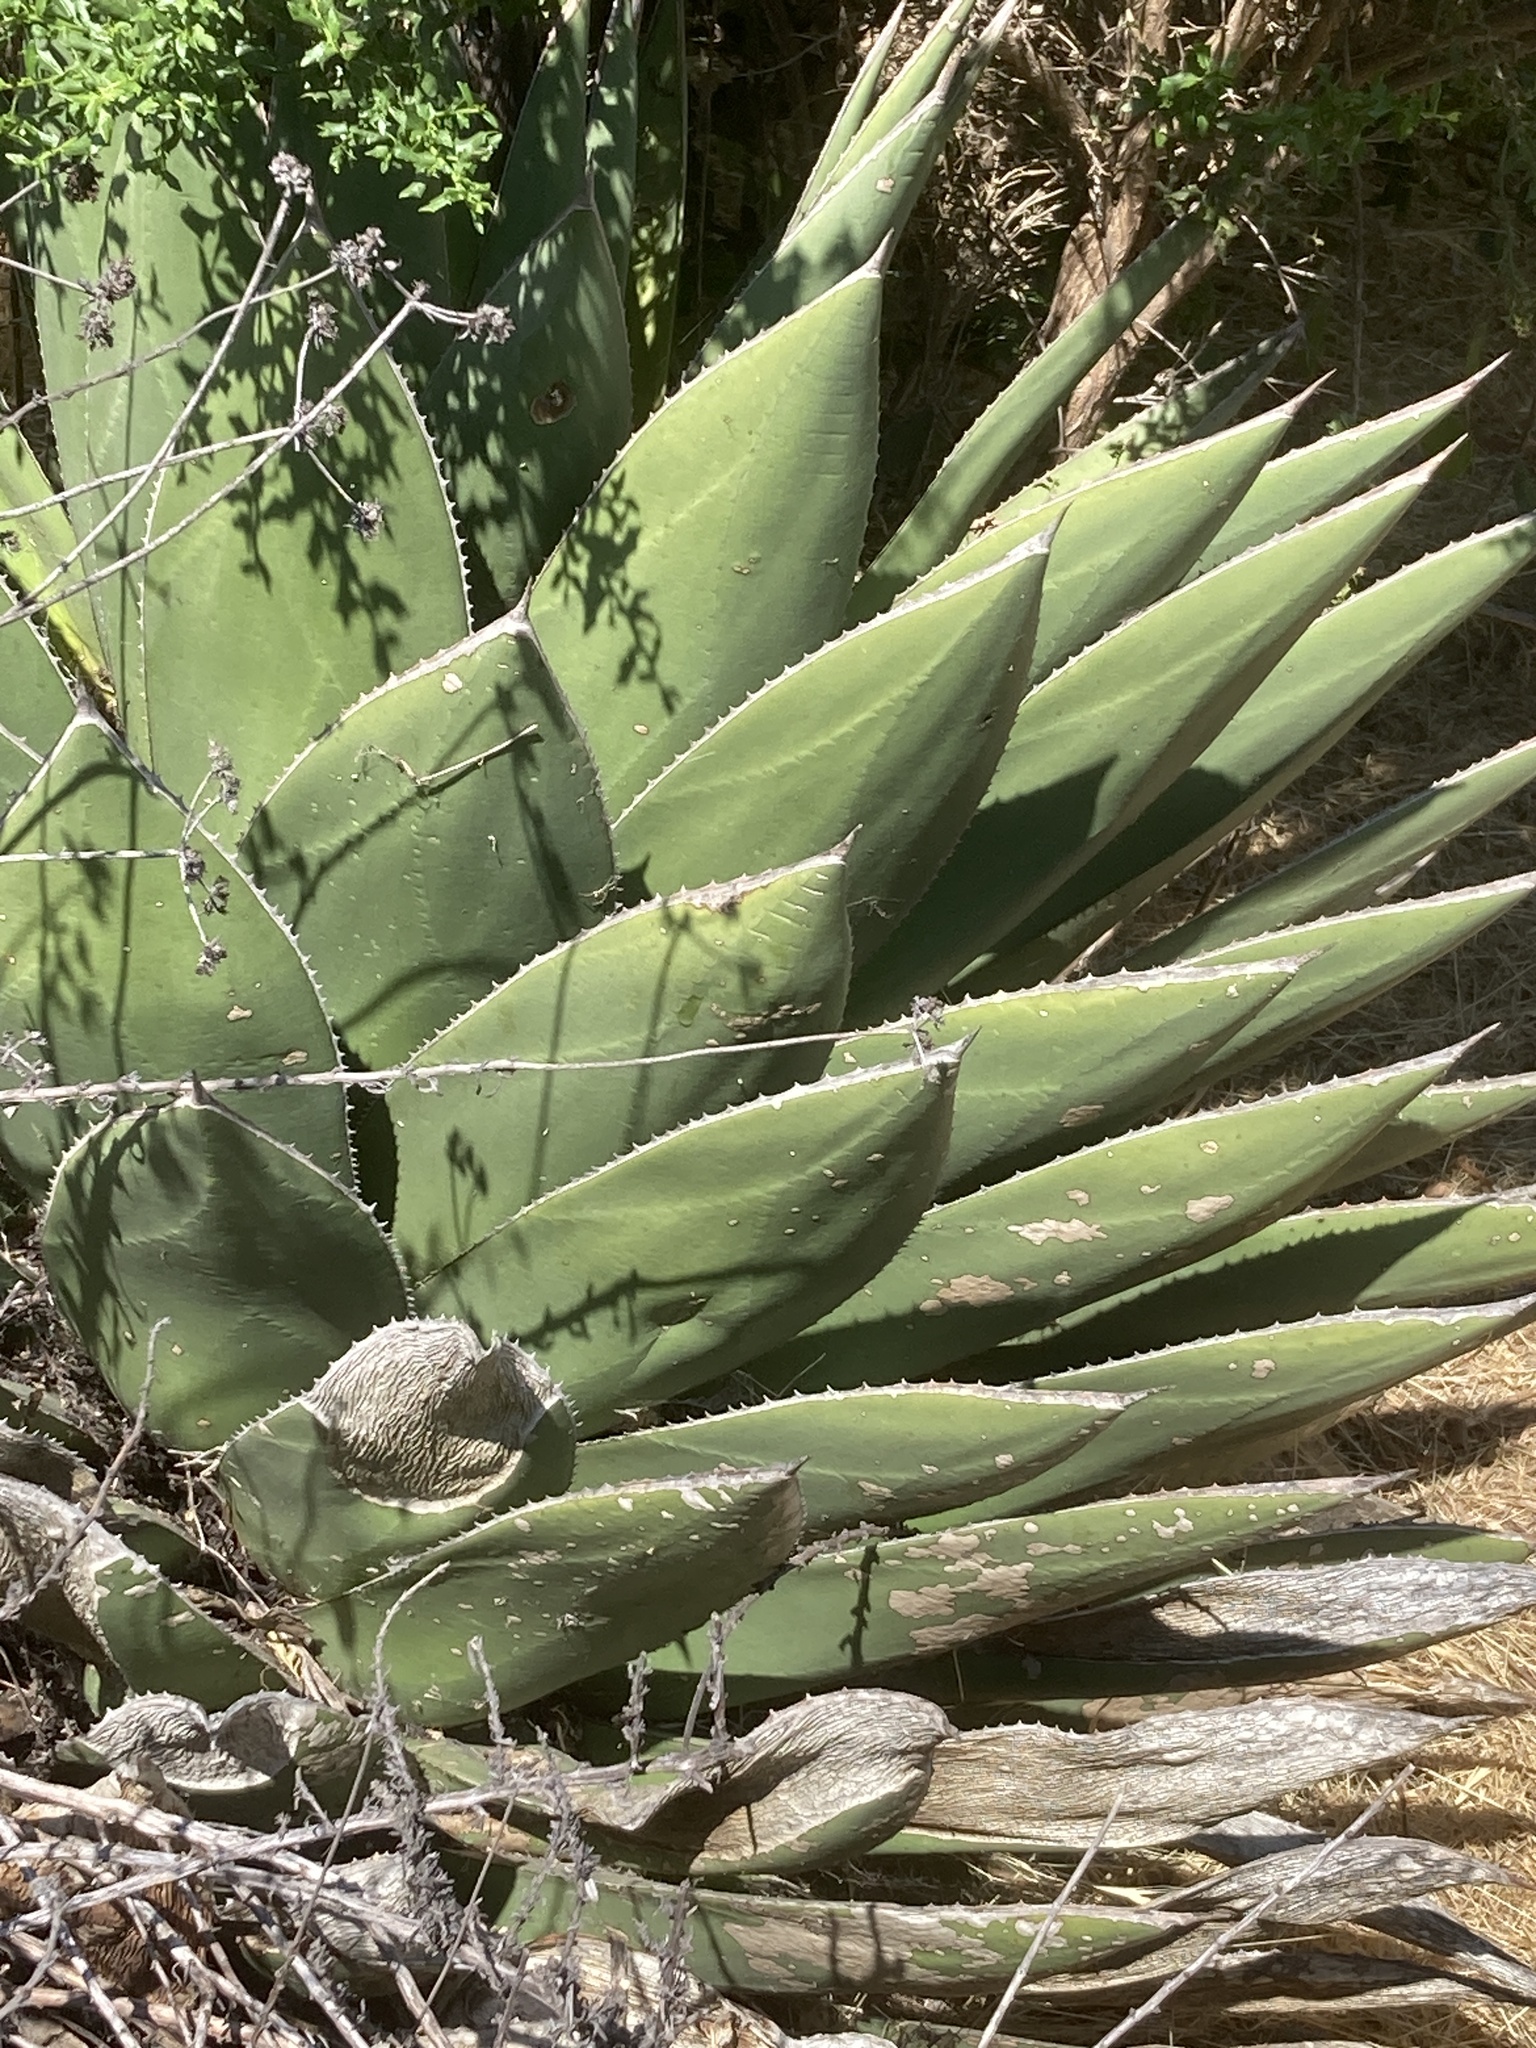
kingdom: Plantae
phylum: Tracheophyta
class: Liliopsida
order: Asparagales
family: Asparagaceae
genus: Agave
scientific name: Agave shawii
